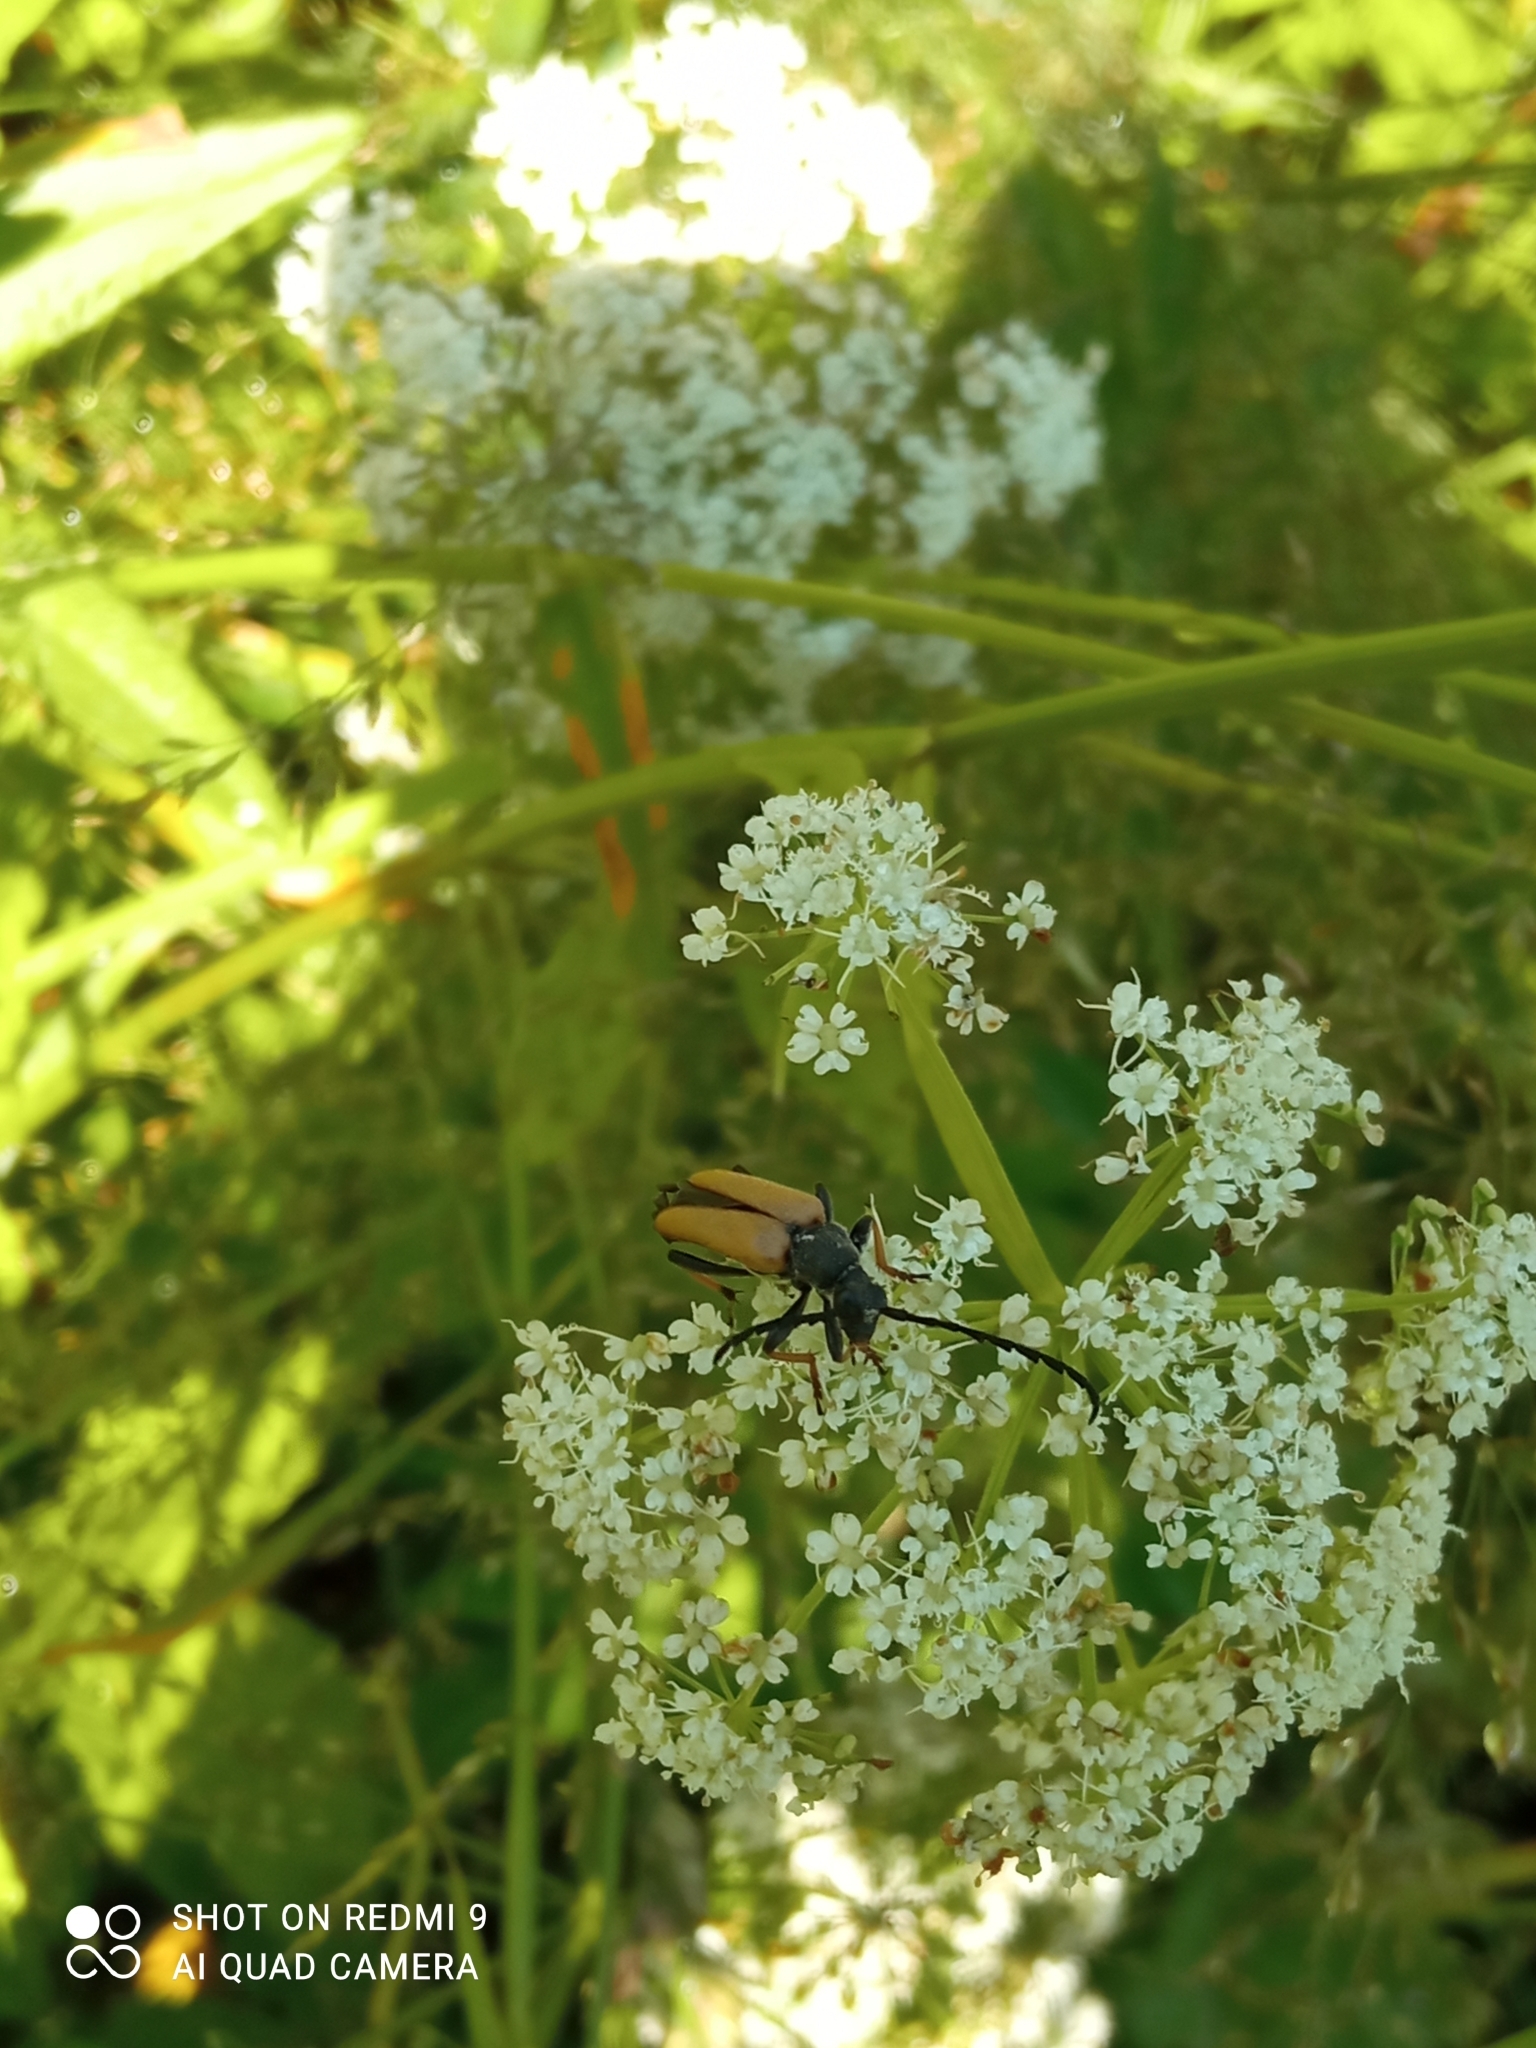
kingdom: Animalia
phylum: Arthropoda
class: Insecta
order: Coleoptera
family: Cerambycidae
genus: Stictoleptura
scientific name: Stictoleptura rubra
